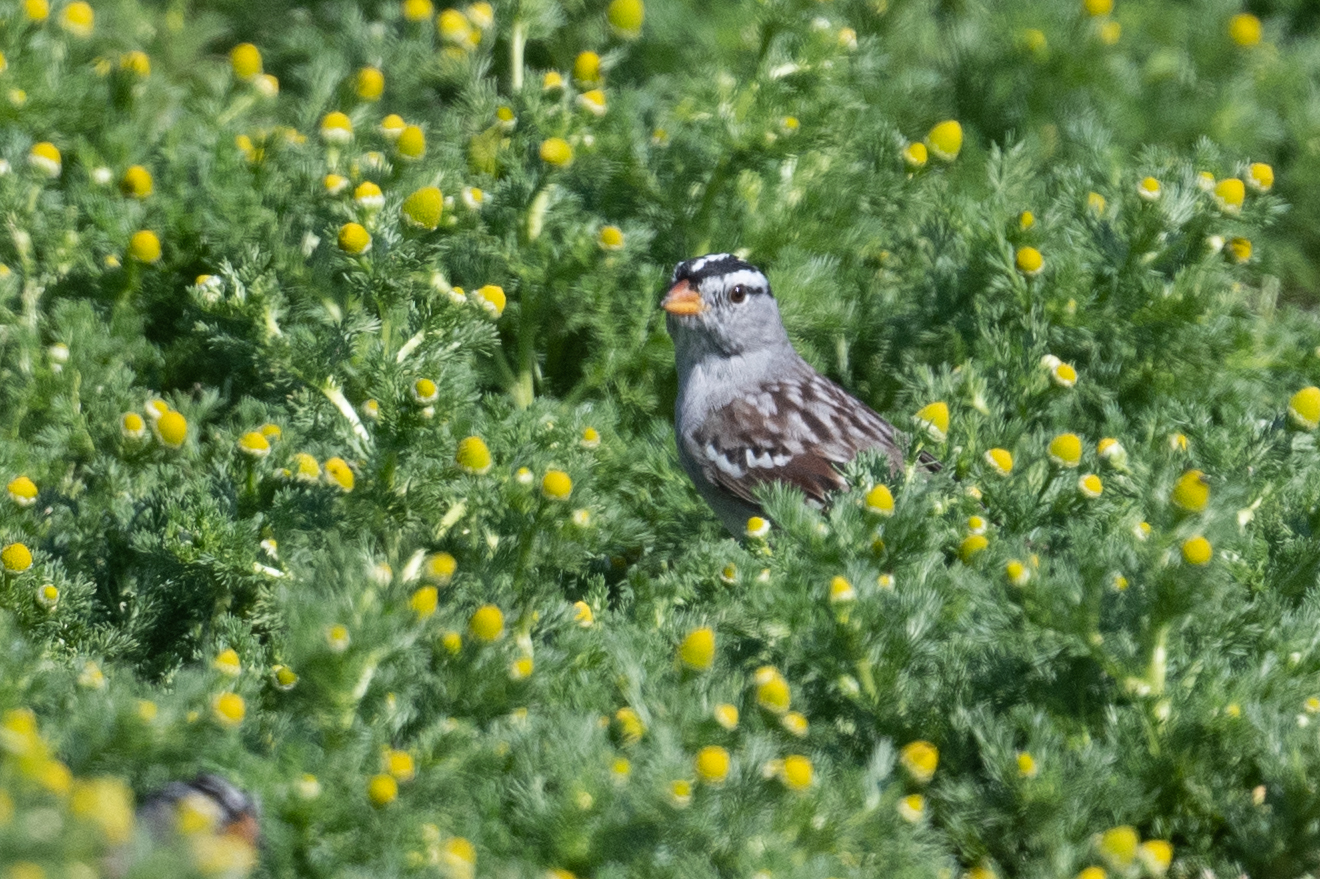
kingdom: Animalia
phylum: Chordata
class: Aves
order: Passeriformes
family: Passerellidae
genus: Zonotrichia
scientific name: Zonotrichia leucophrys
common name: White-crowned sparrow
